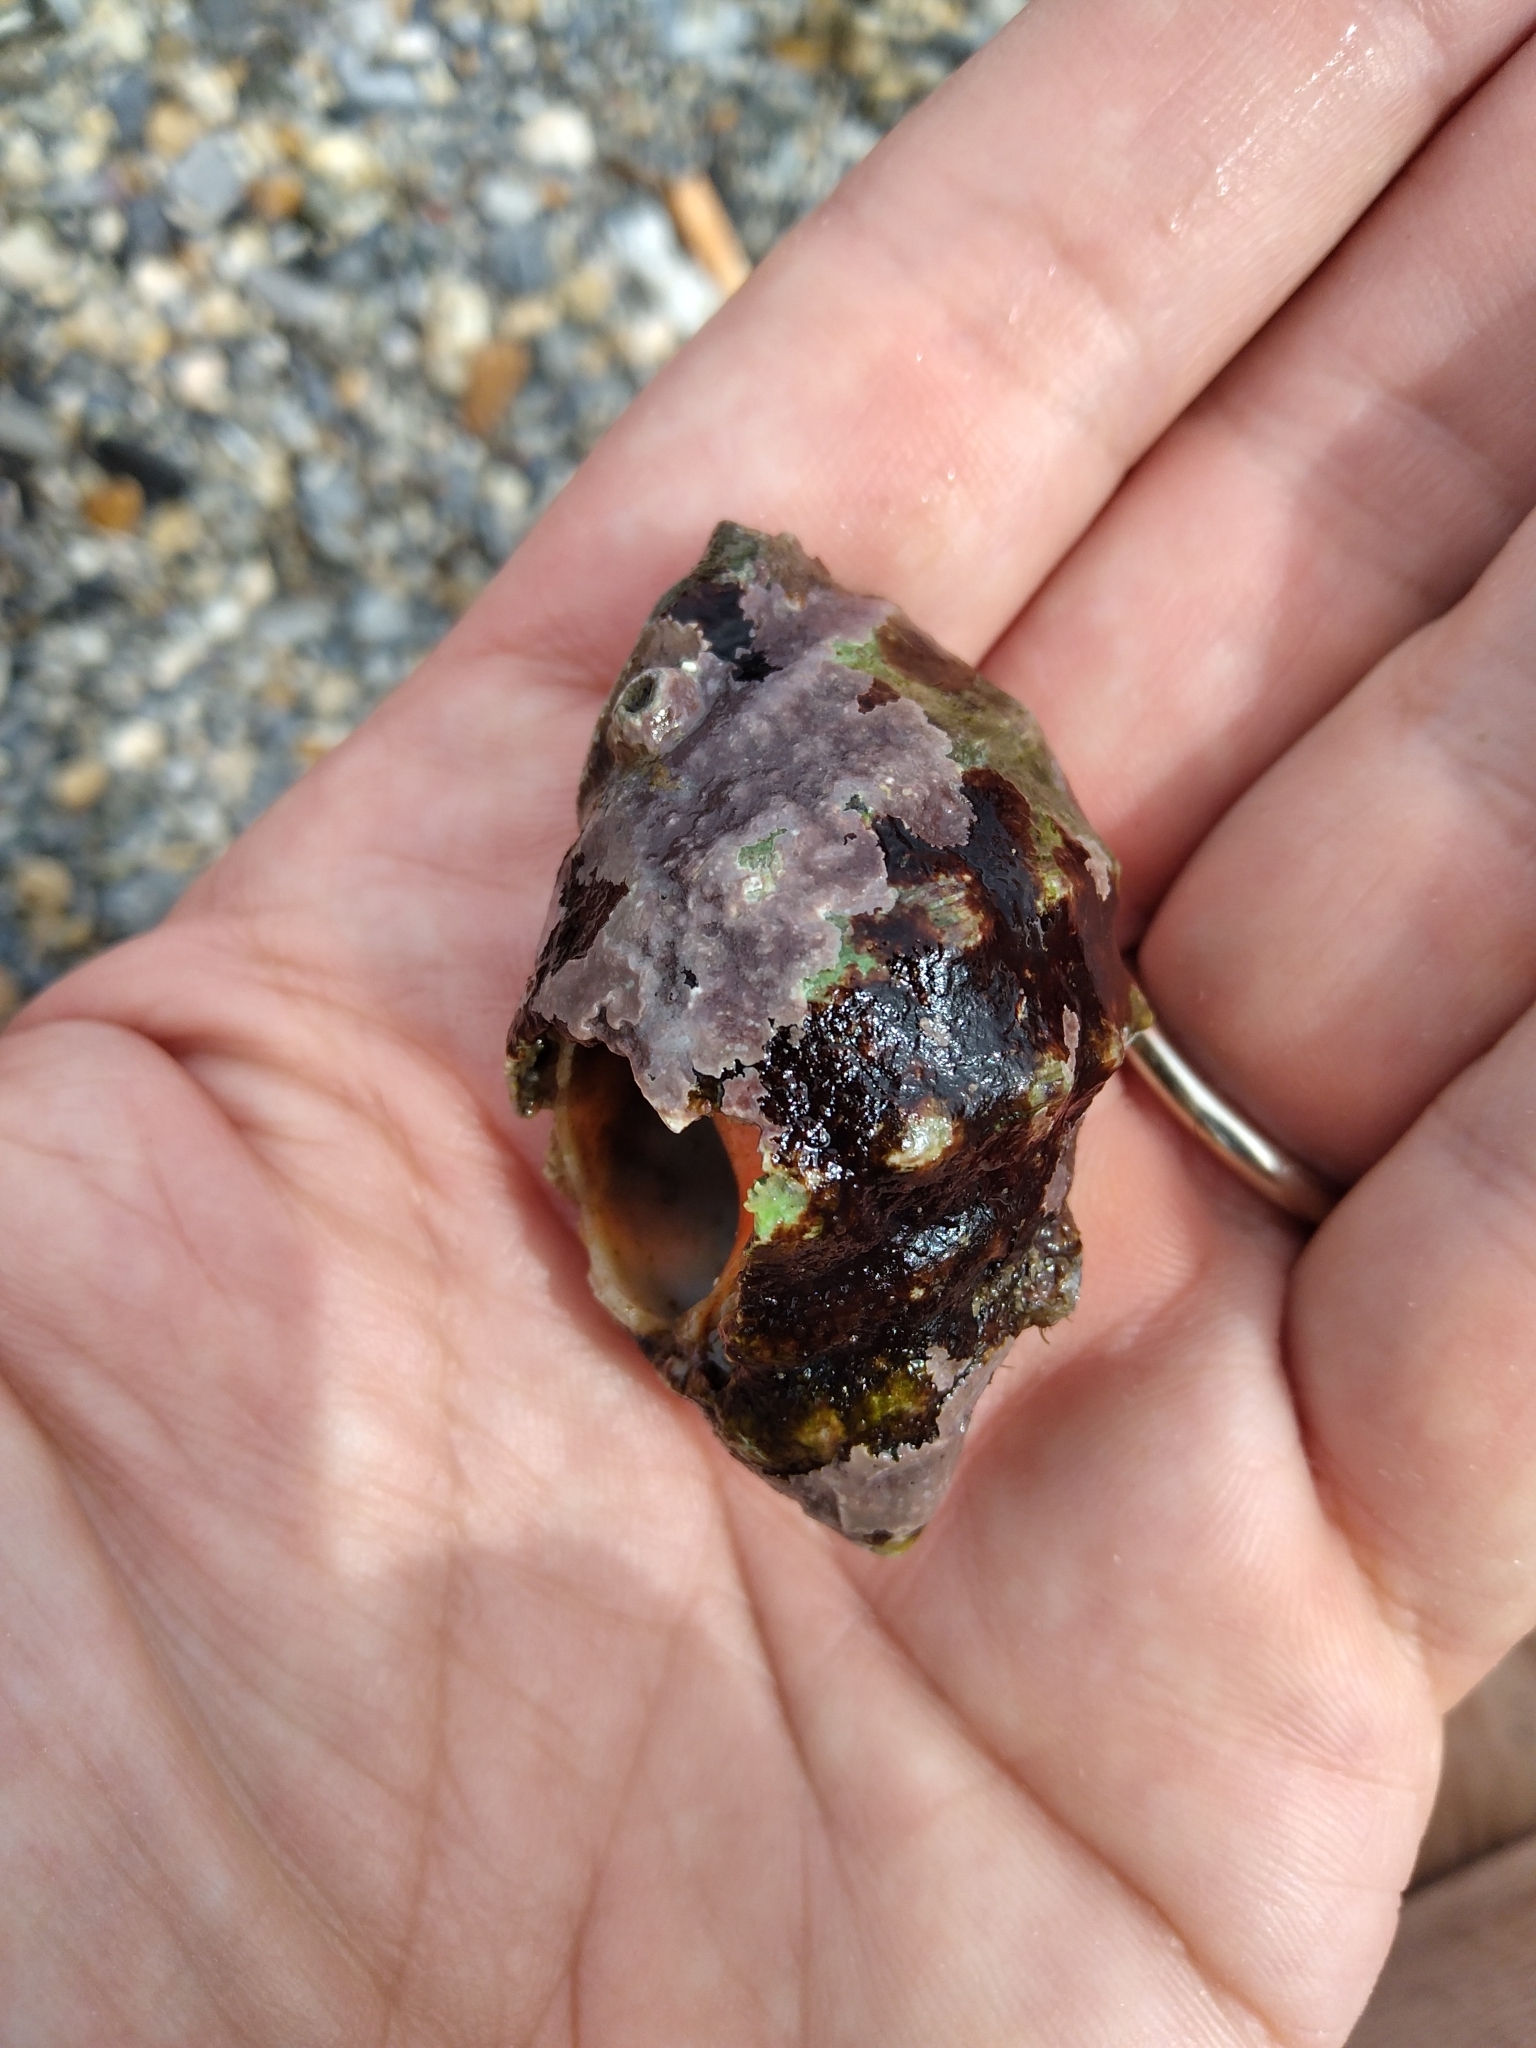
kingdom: Animalia
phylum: Mollusca
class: Gastropoda
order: Neogastropoda
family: Muricidae
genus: Stramonita
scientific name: Stramonita haemastoma
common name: Florida dog winkle
